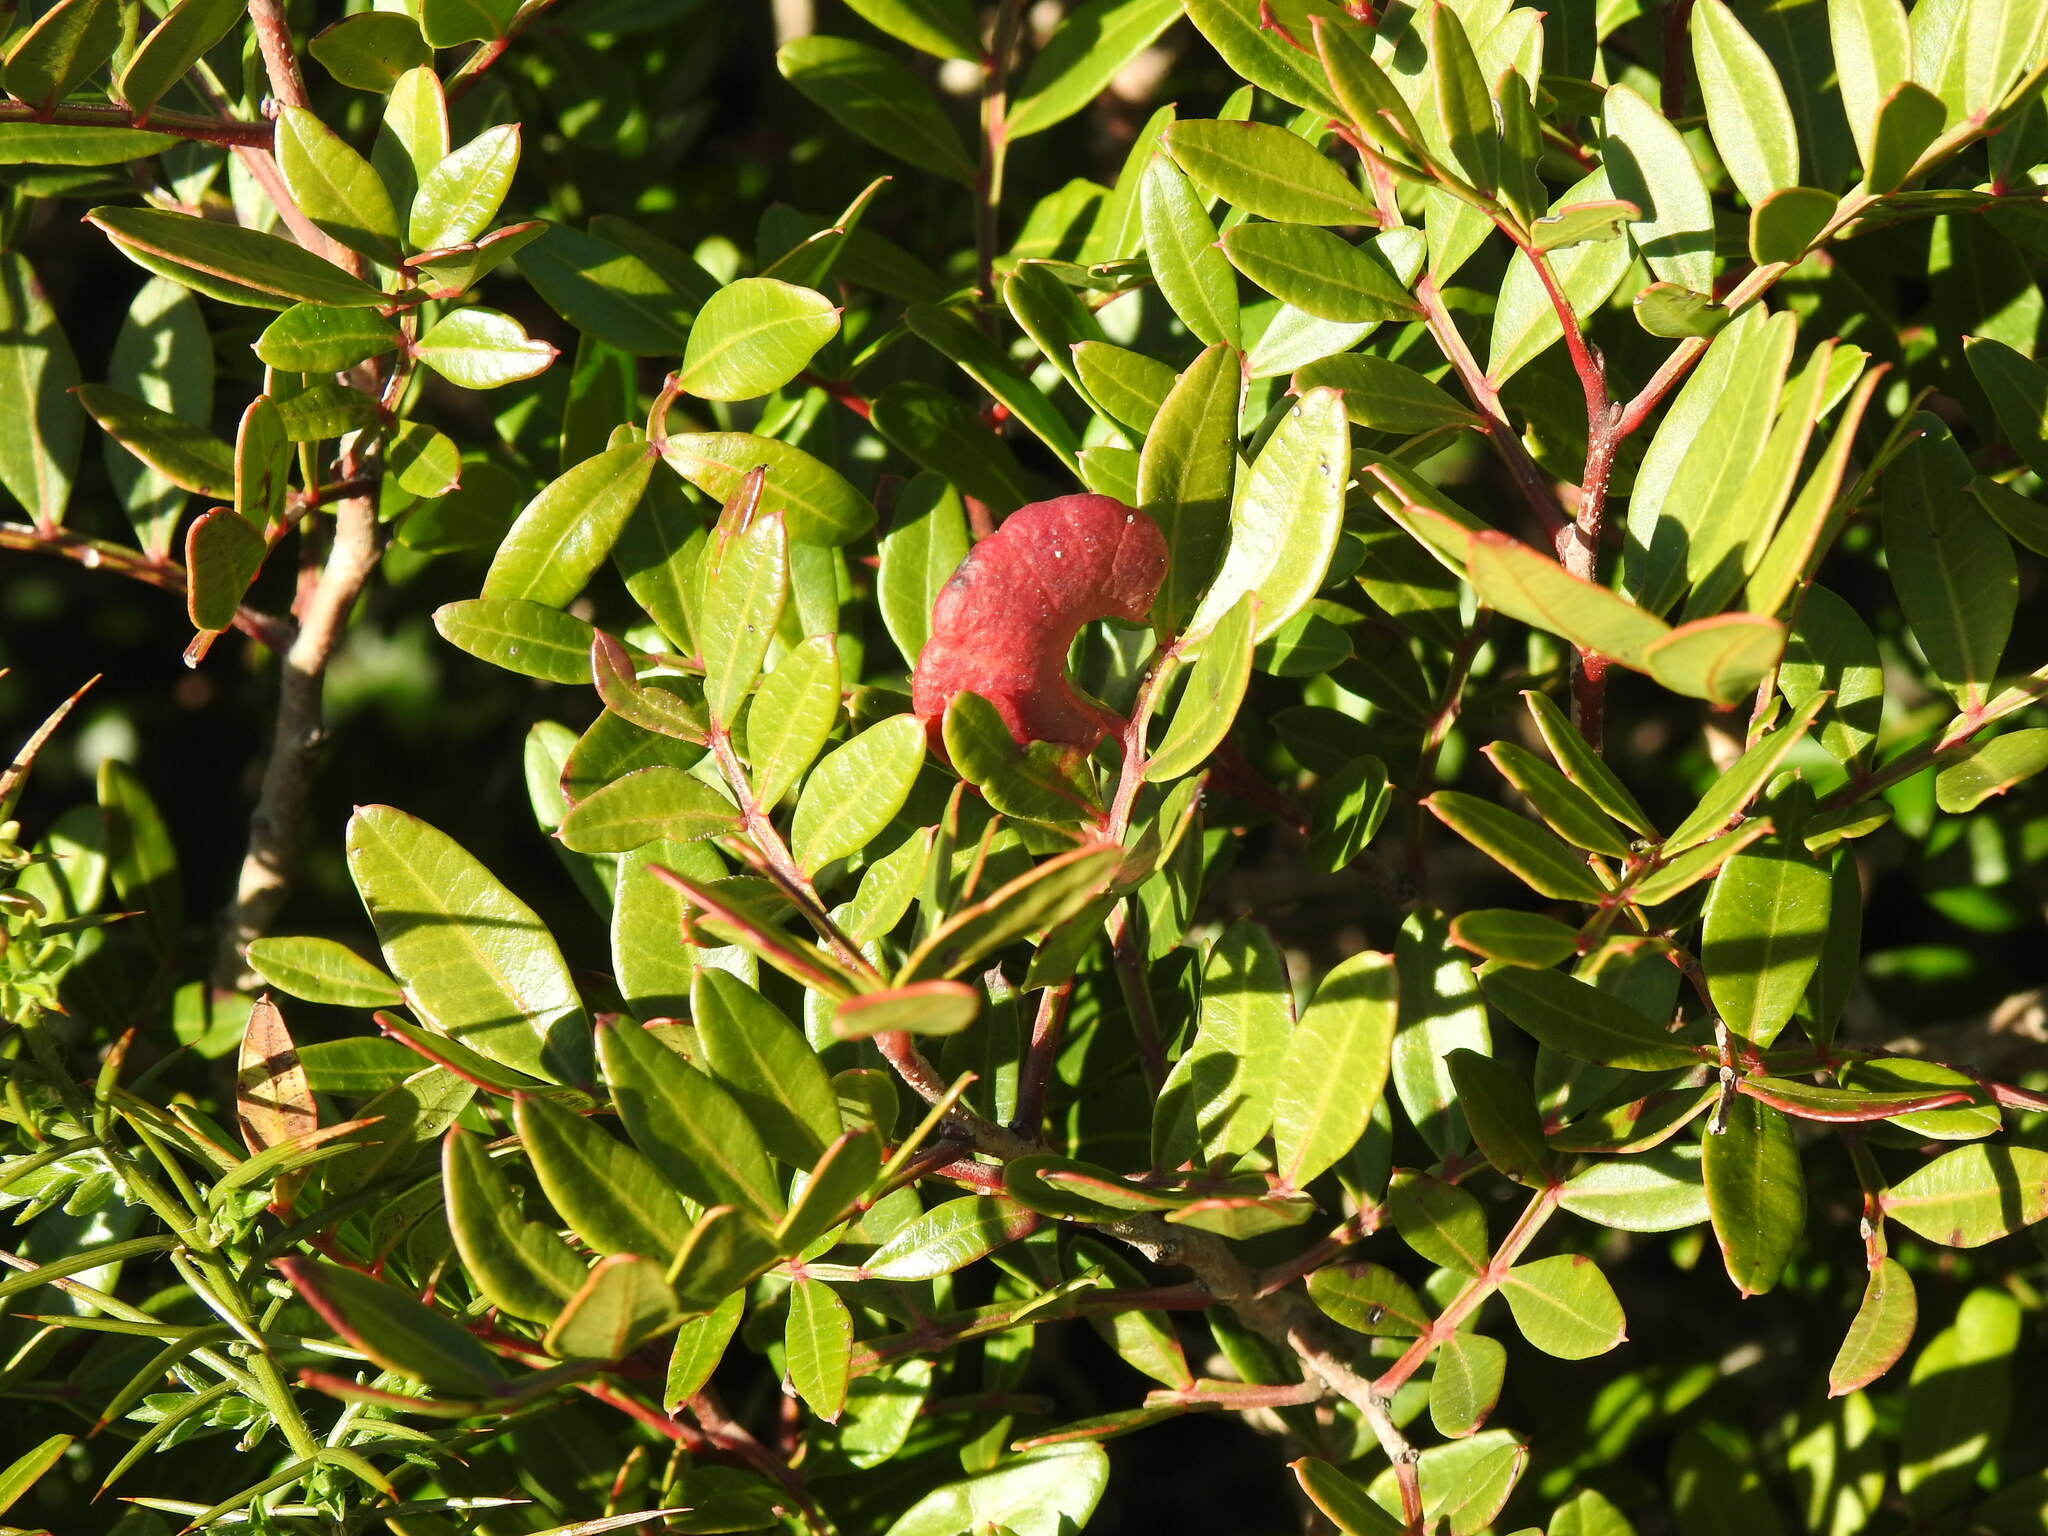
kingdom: Animalia
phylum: Arthropoda
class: Insecta
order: Hemiptera
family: Aphididae
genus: Aploneura
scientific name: Aploneura lentisci
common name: Mealy grass root aphid
